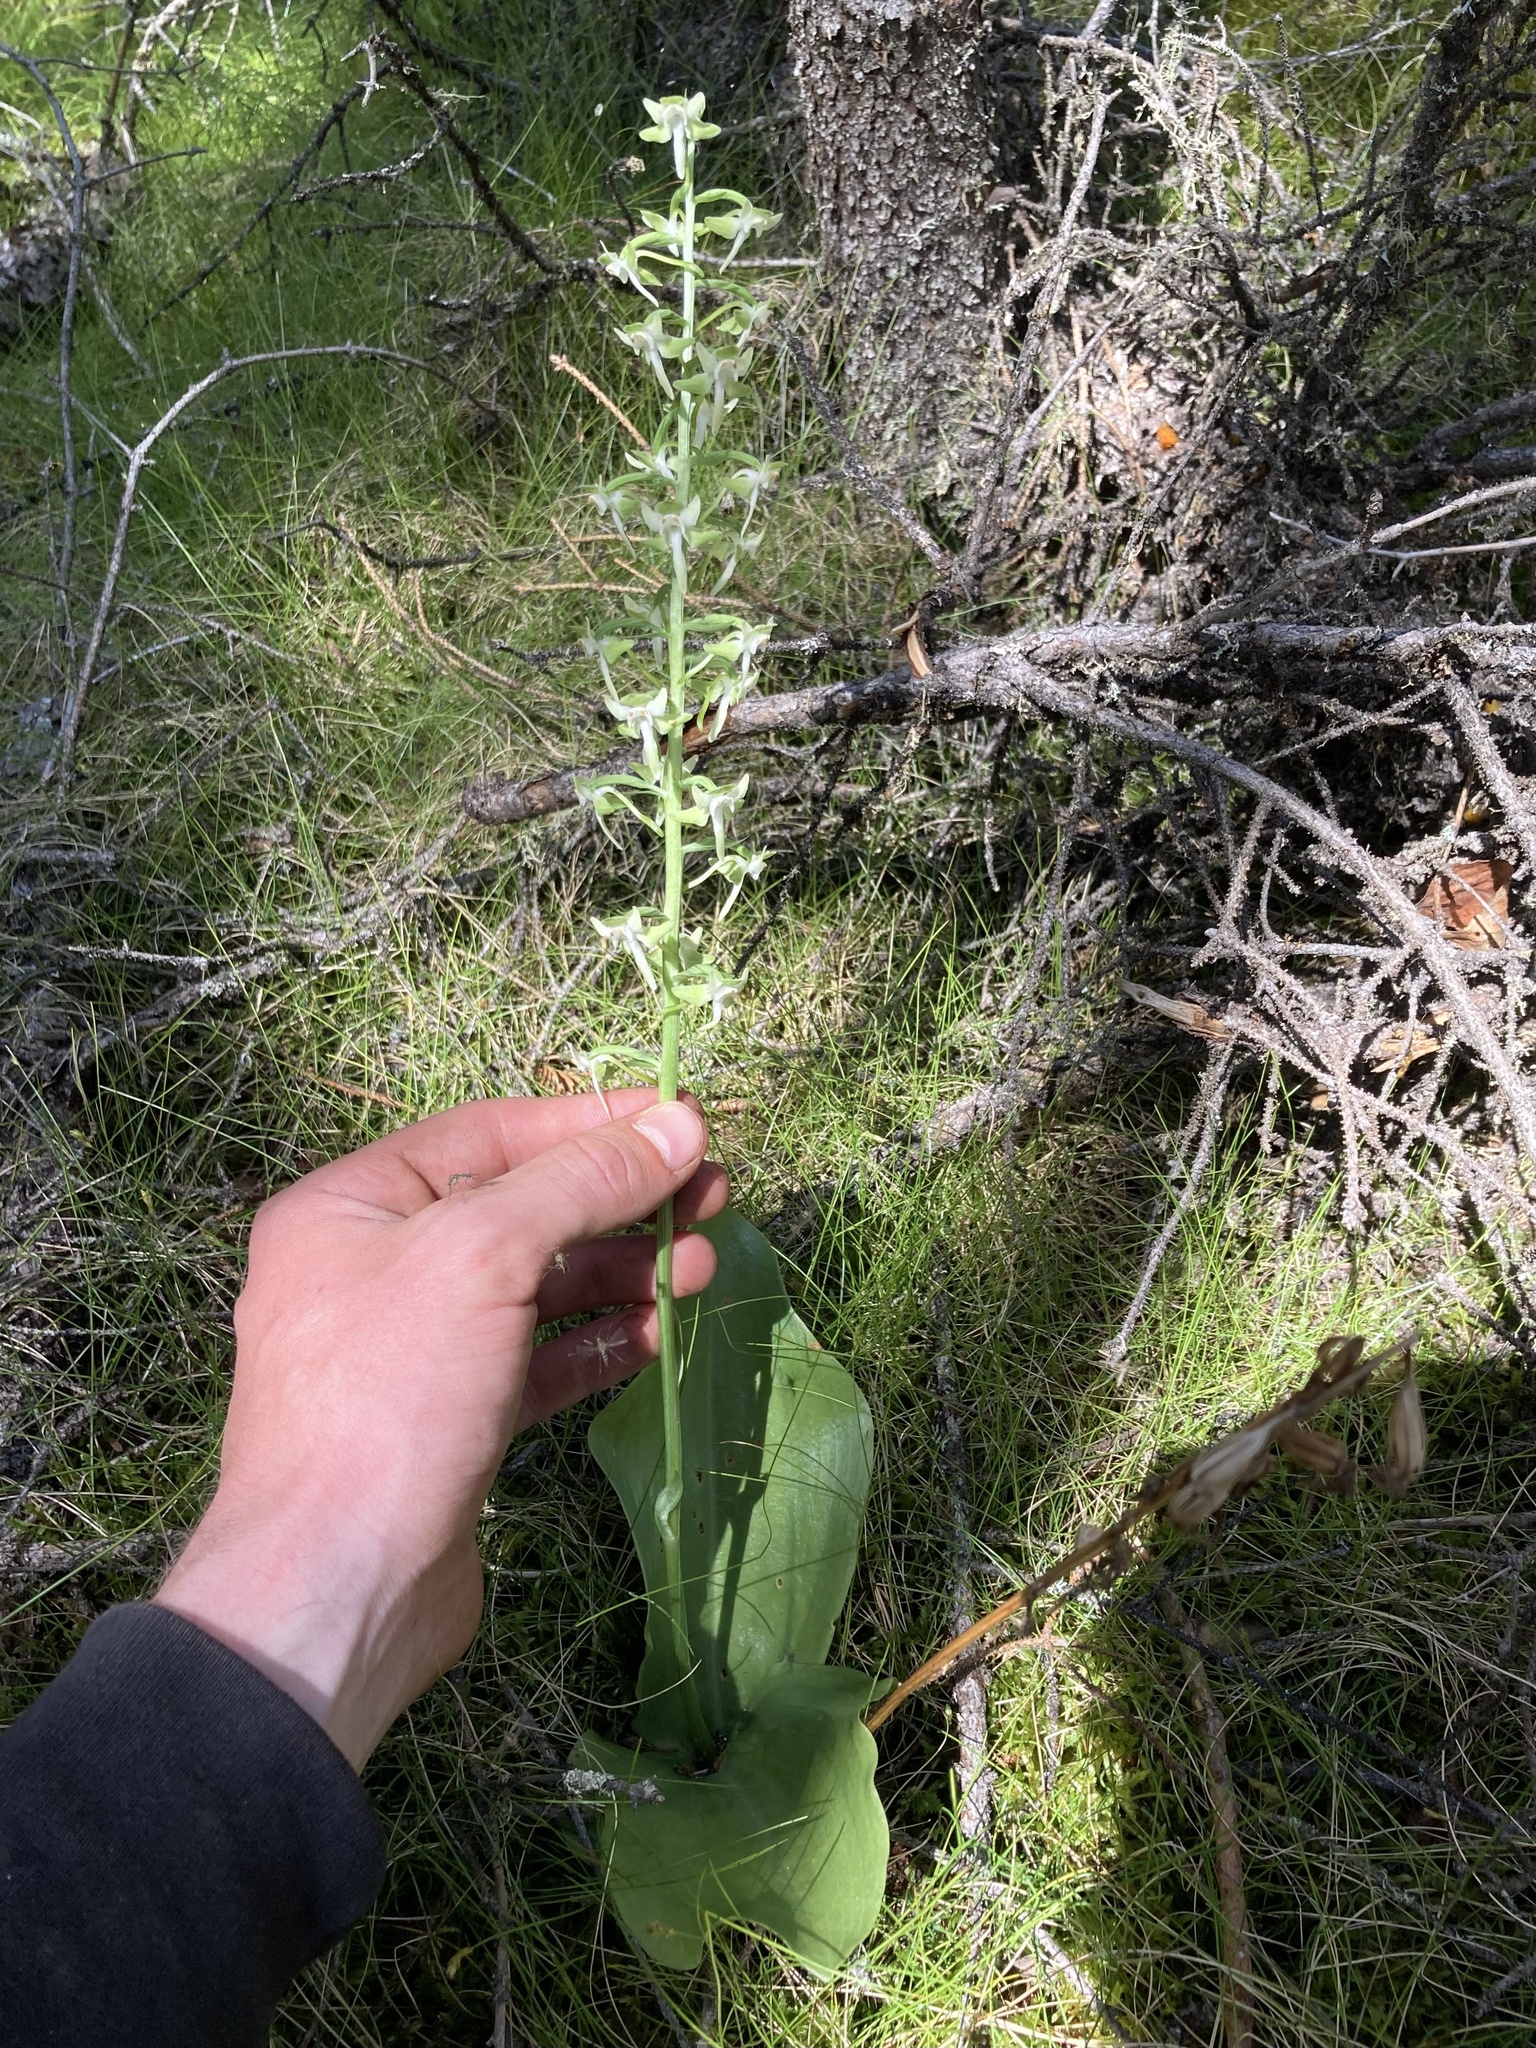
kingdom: Plantae
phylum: Tracheophyta
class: Liliopsida
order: Asparagales
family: Orchidaceae
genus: Platanthera
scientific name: Platanthera orbiculata
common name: Large round-leaved orchid
